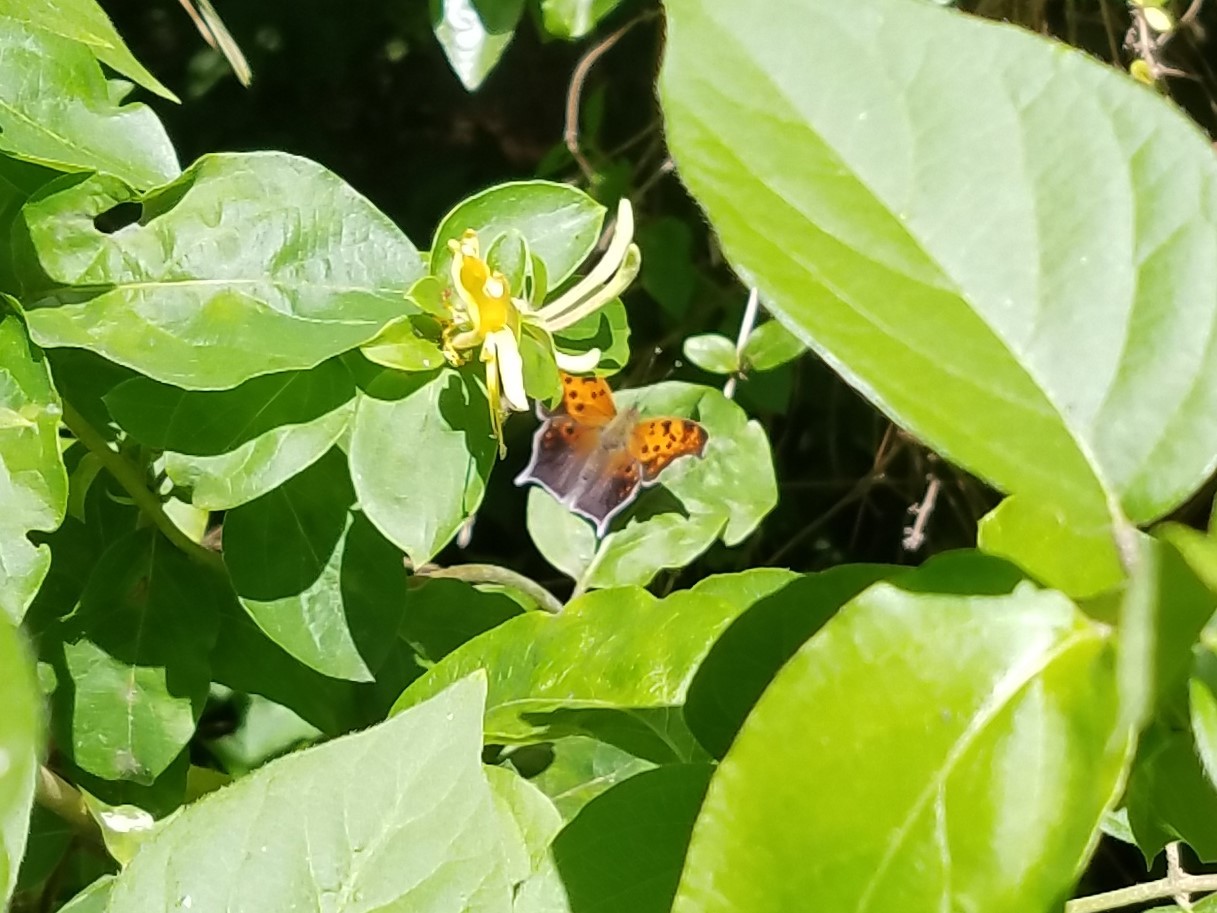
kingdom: Animalia
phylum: Arthropoda
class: Insecta
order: Lepidoptera
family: Nymphalidae
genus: Polygonia
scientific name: Polygonia interrogationis
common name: Question mark
